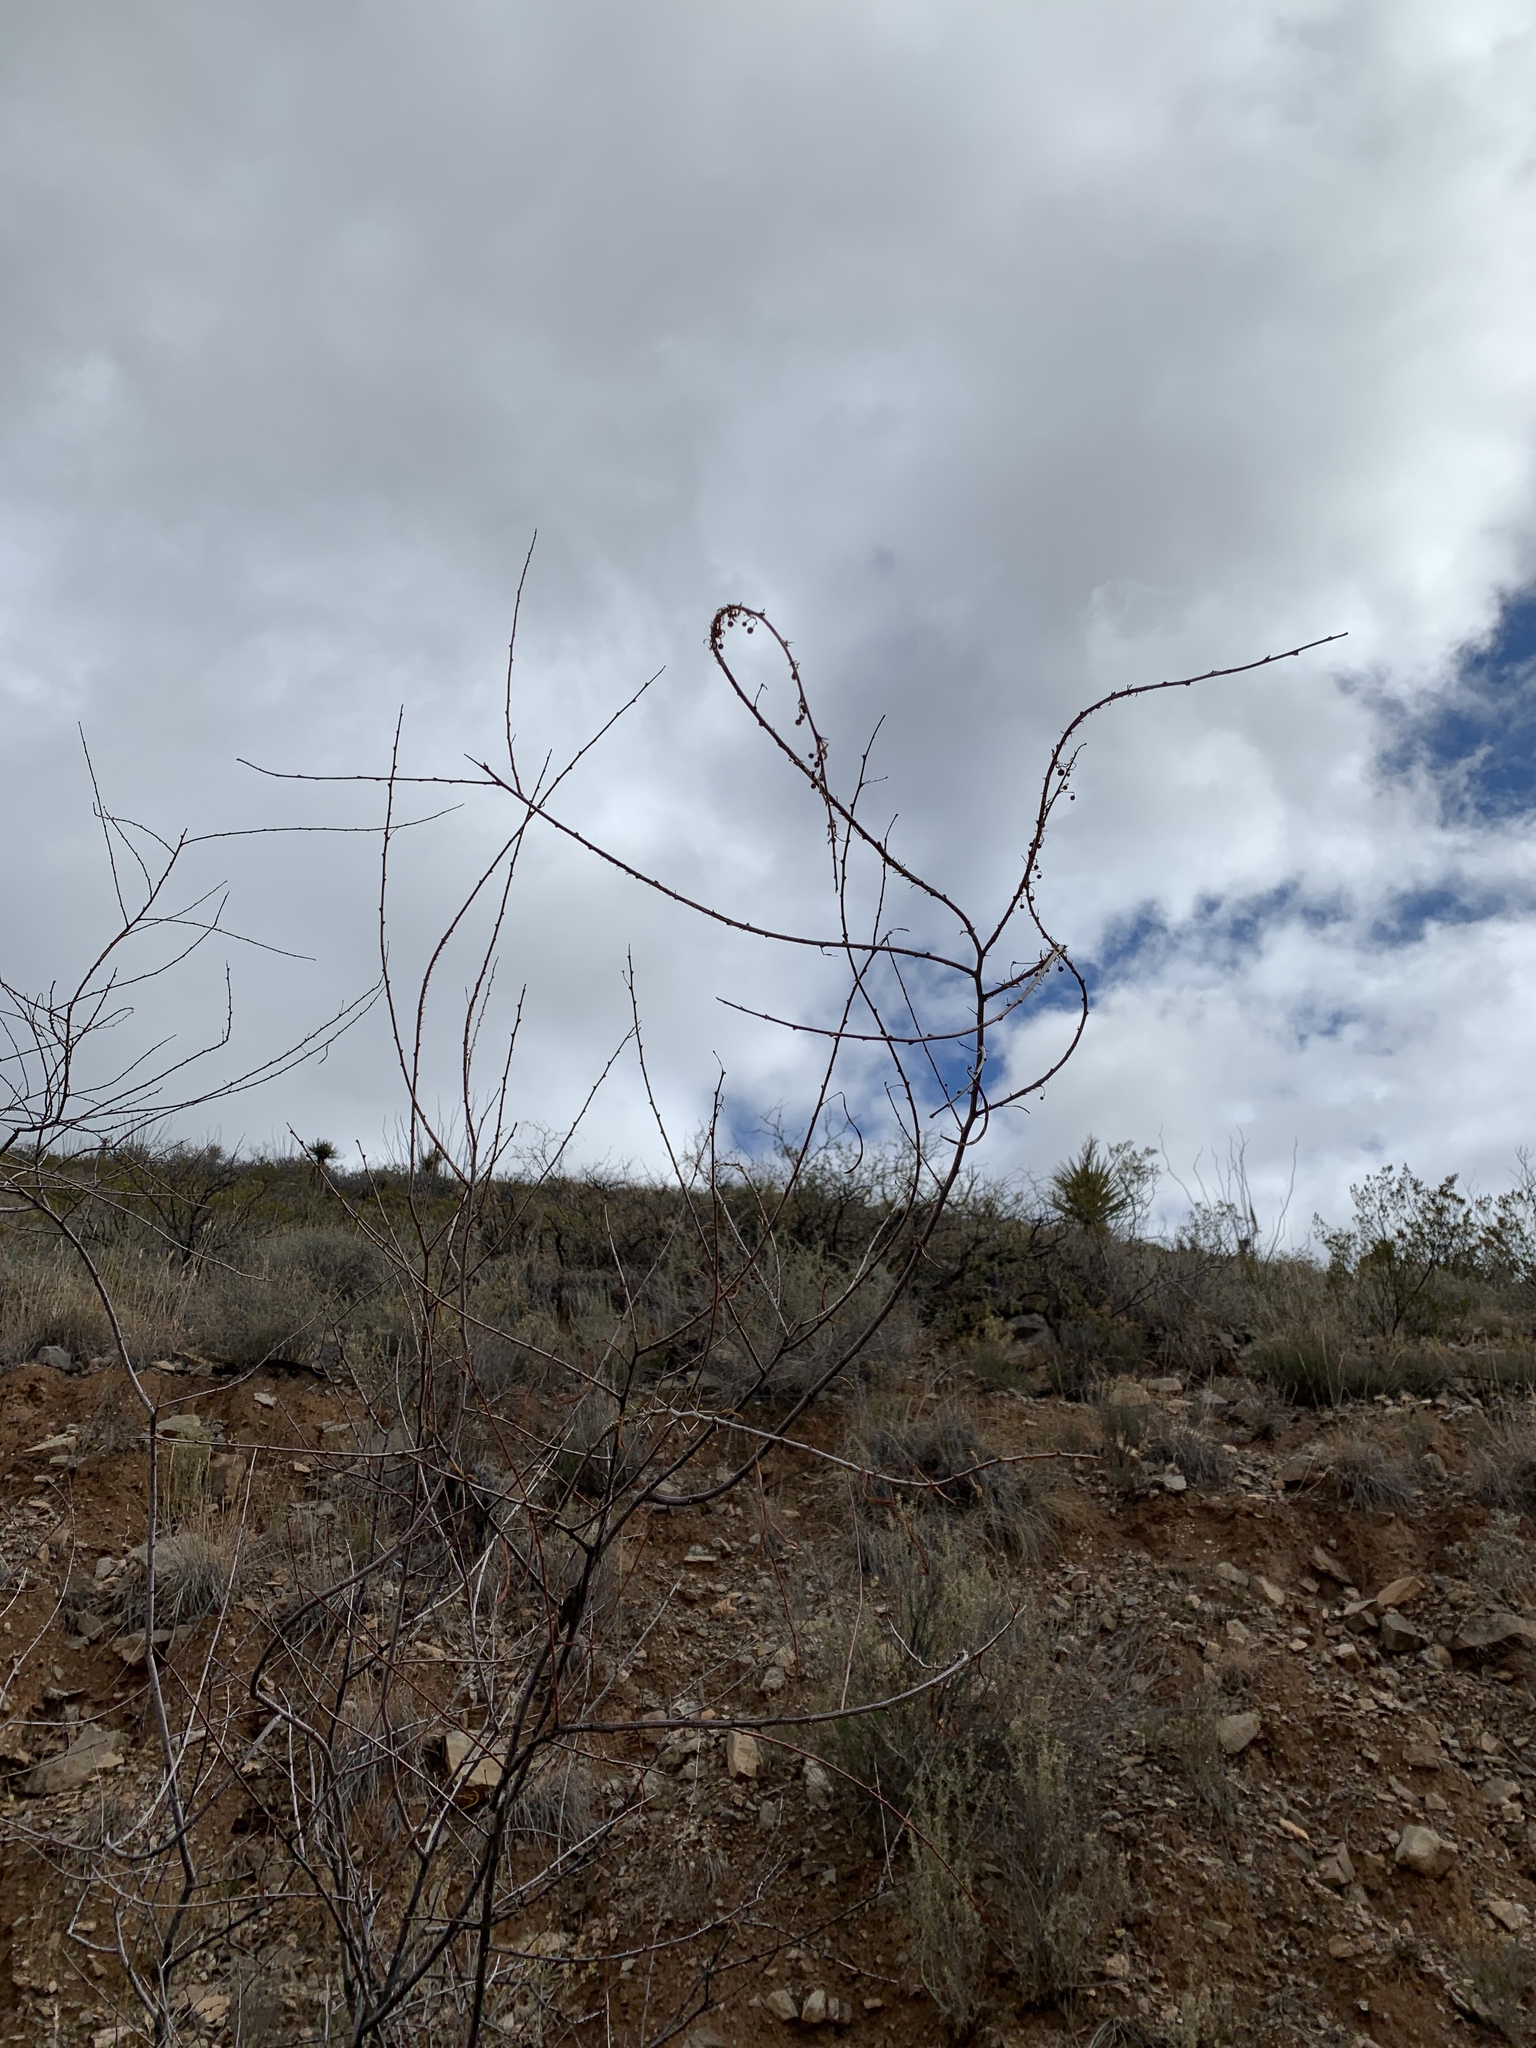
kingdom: Plantae
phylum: Tracheophyta
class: Magnoliopsida
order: Fabales
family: Fabaceae
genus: Vachellia
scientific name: Vachellia constricta
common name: Mescat acacia
